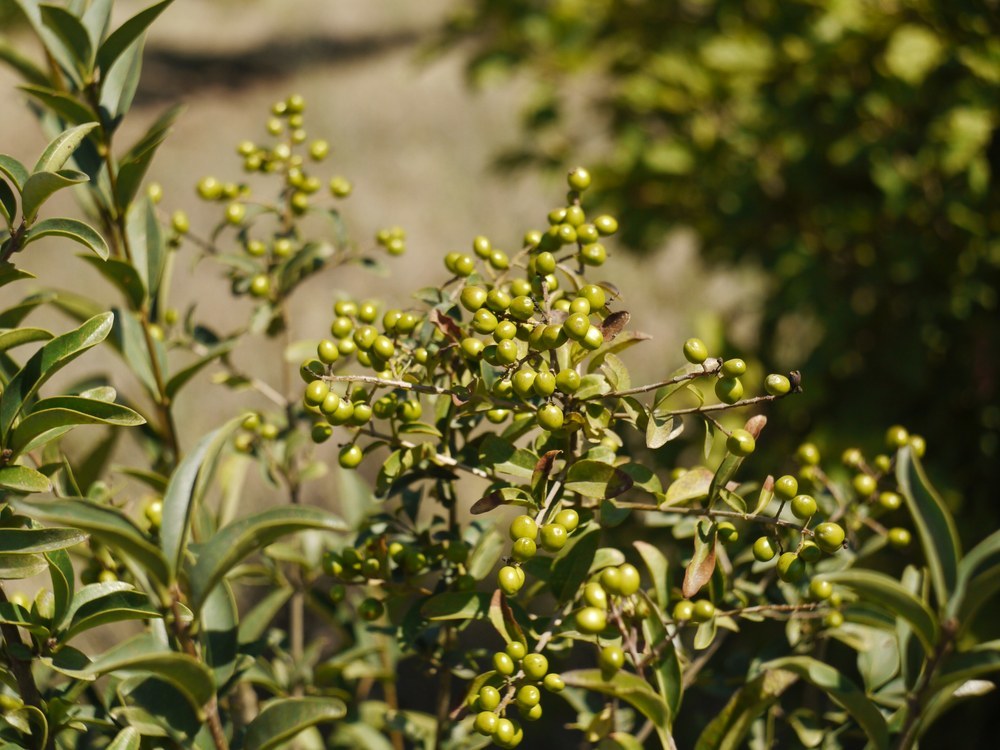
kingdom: Plantae
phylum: Tracheophyta
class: Magnoliopsida
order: Lamiales
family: Oleaceae
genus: Ligustrum
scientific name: Ligustrum vulgare
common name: Wild privet
